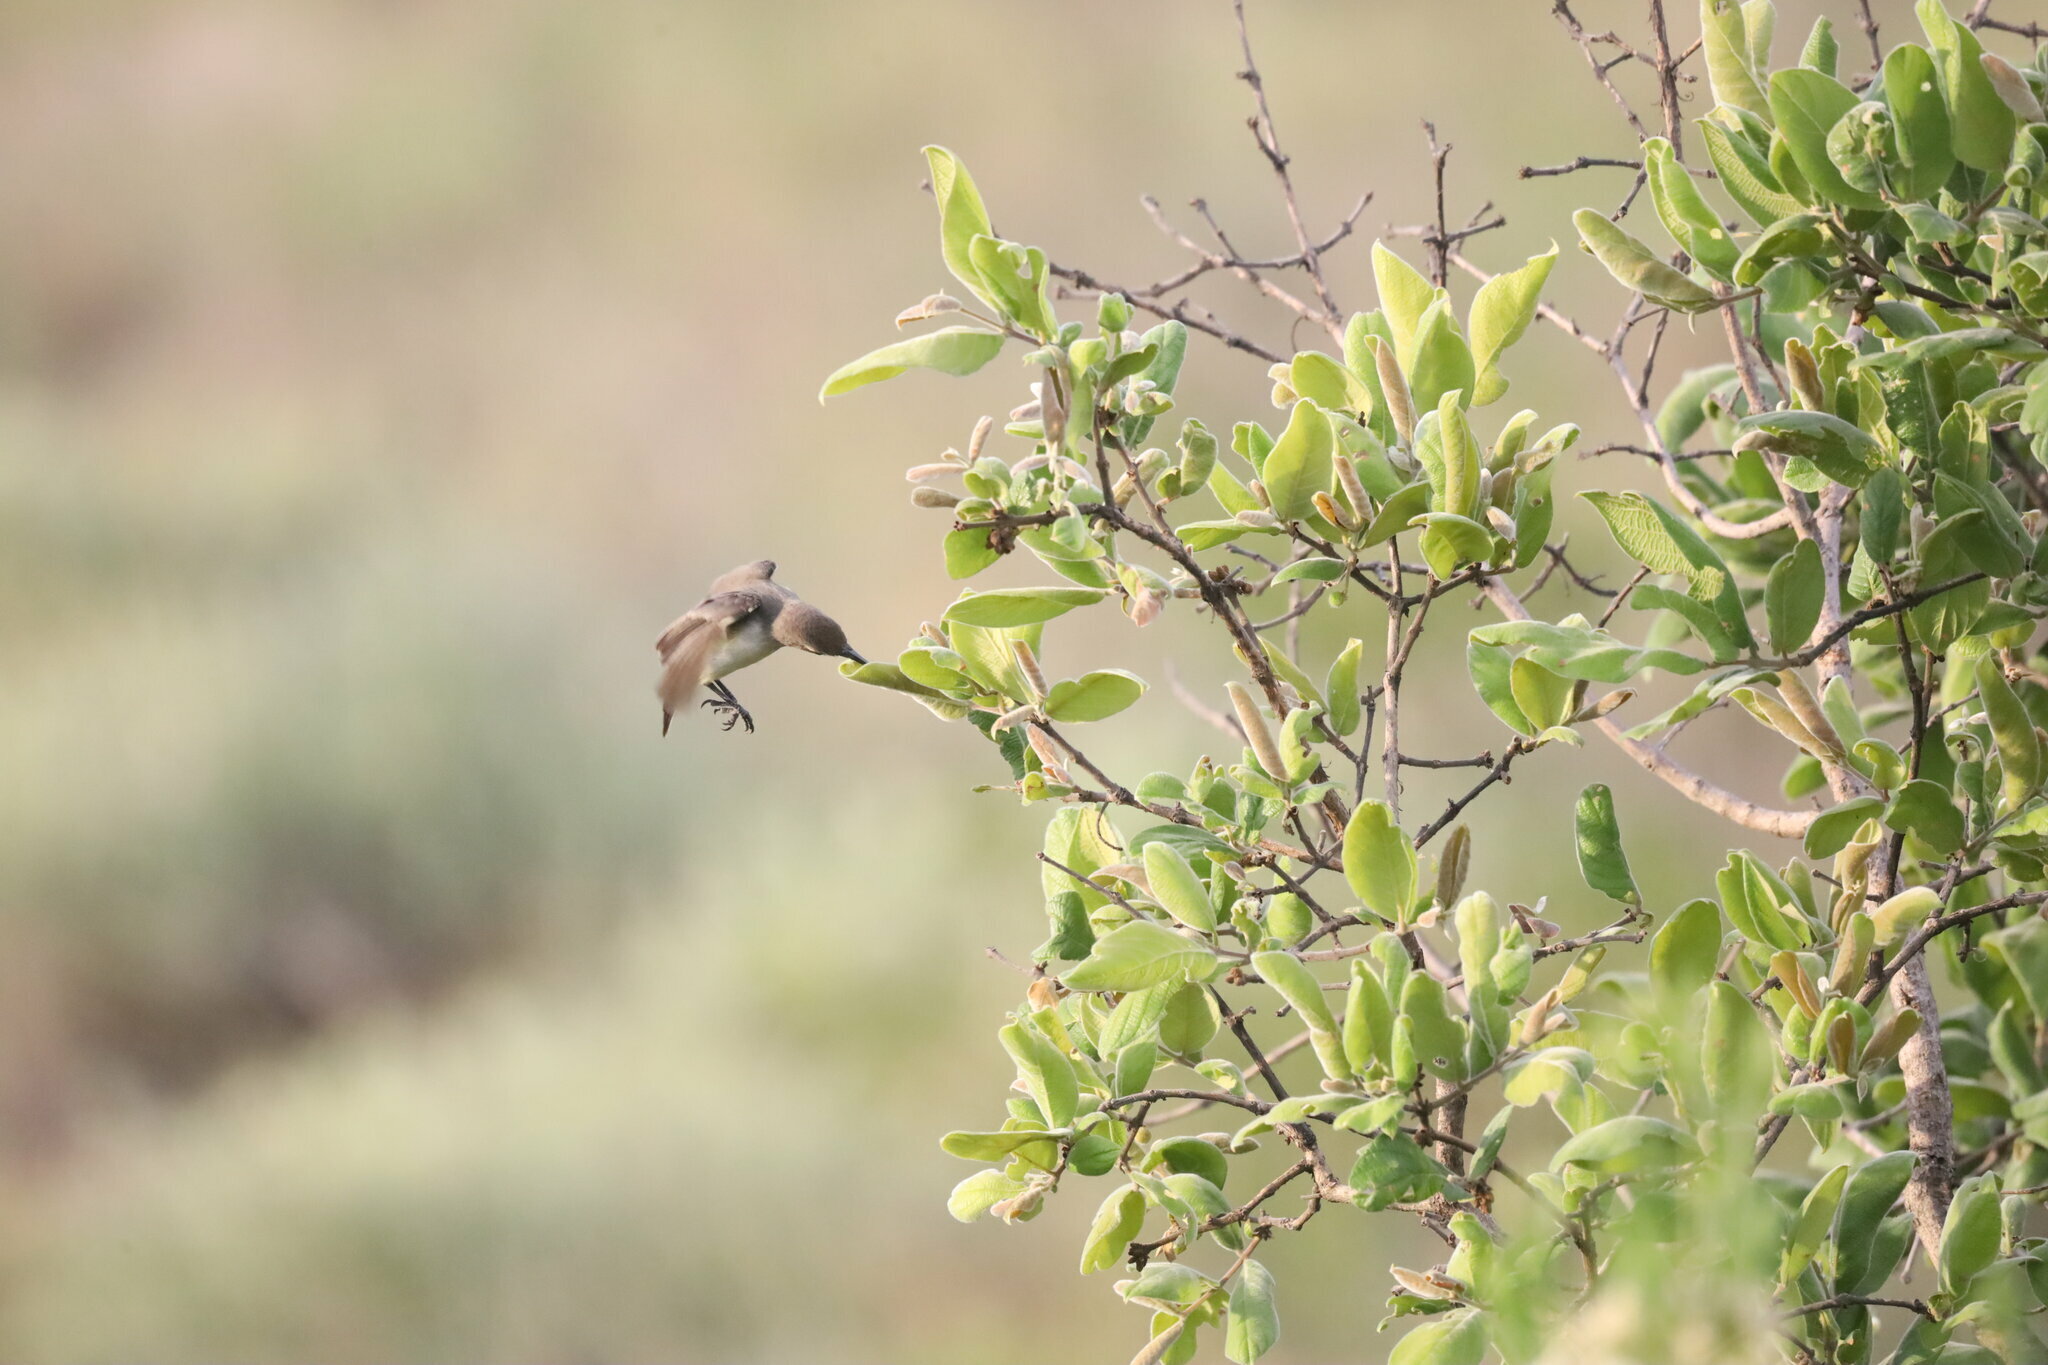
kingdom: Animalia
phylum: Chordata
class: Aves
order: Passeriformes
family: Nectariniidae
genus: Cinnyris
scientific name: Cinnyris talatala
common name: White-bellied sunbird
